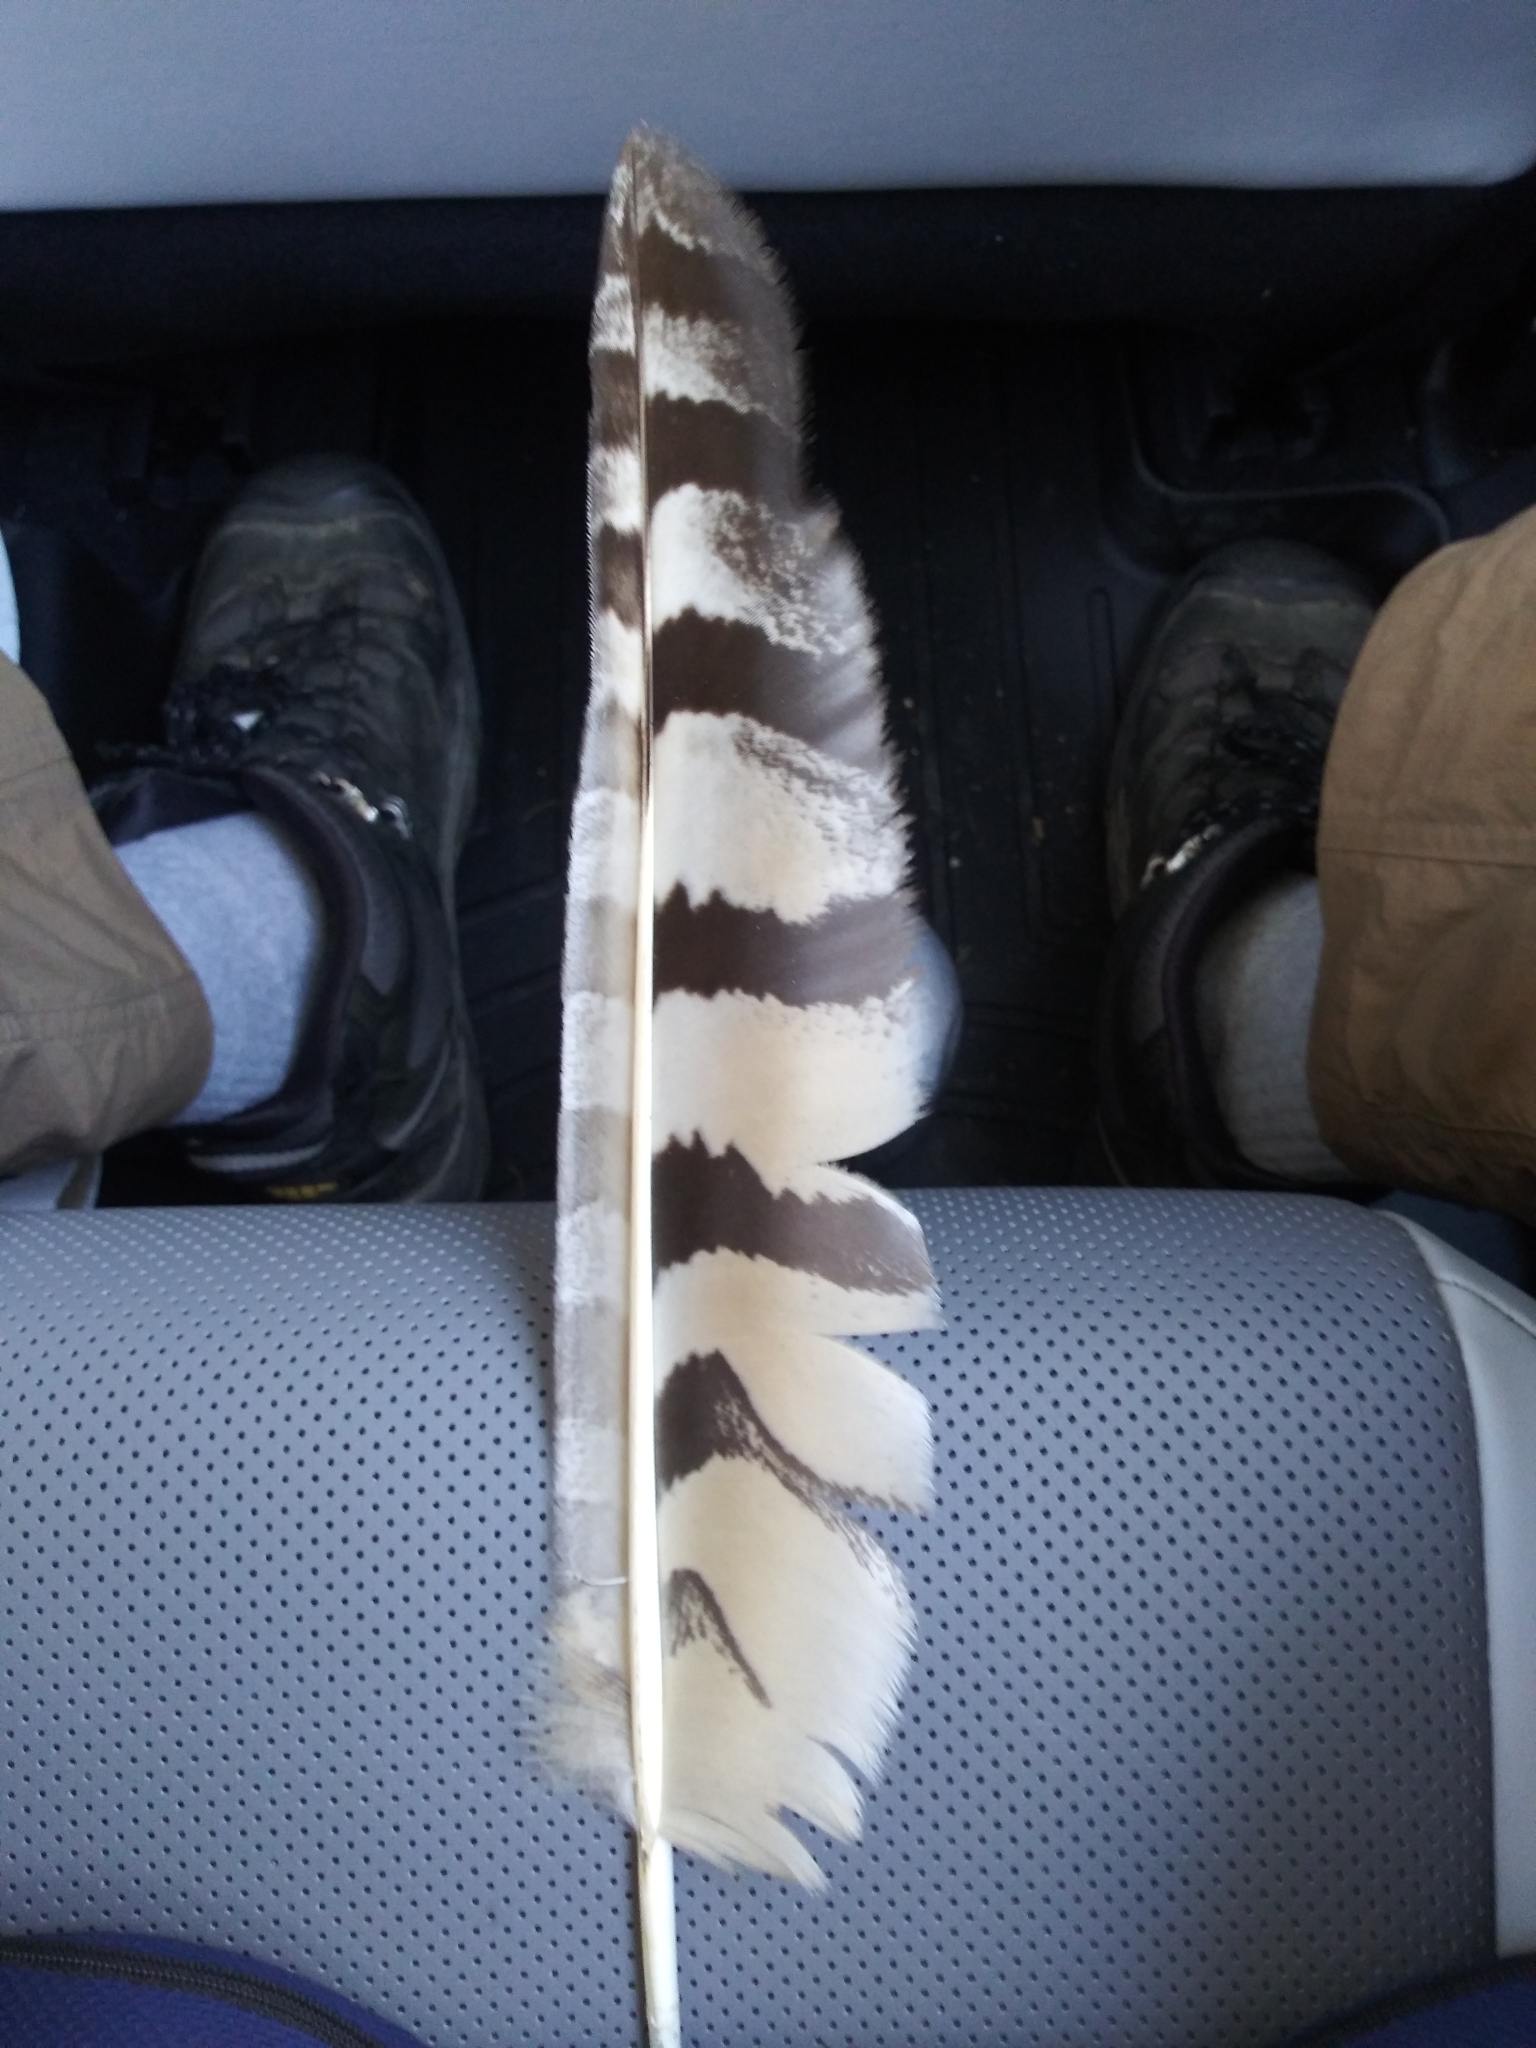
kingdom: Animalia
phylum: Chordata
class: Aves
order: Strigiformes
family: Strigidae
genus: Bubo
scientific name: Bubo virginianus
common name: Great horned owl
